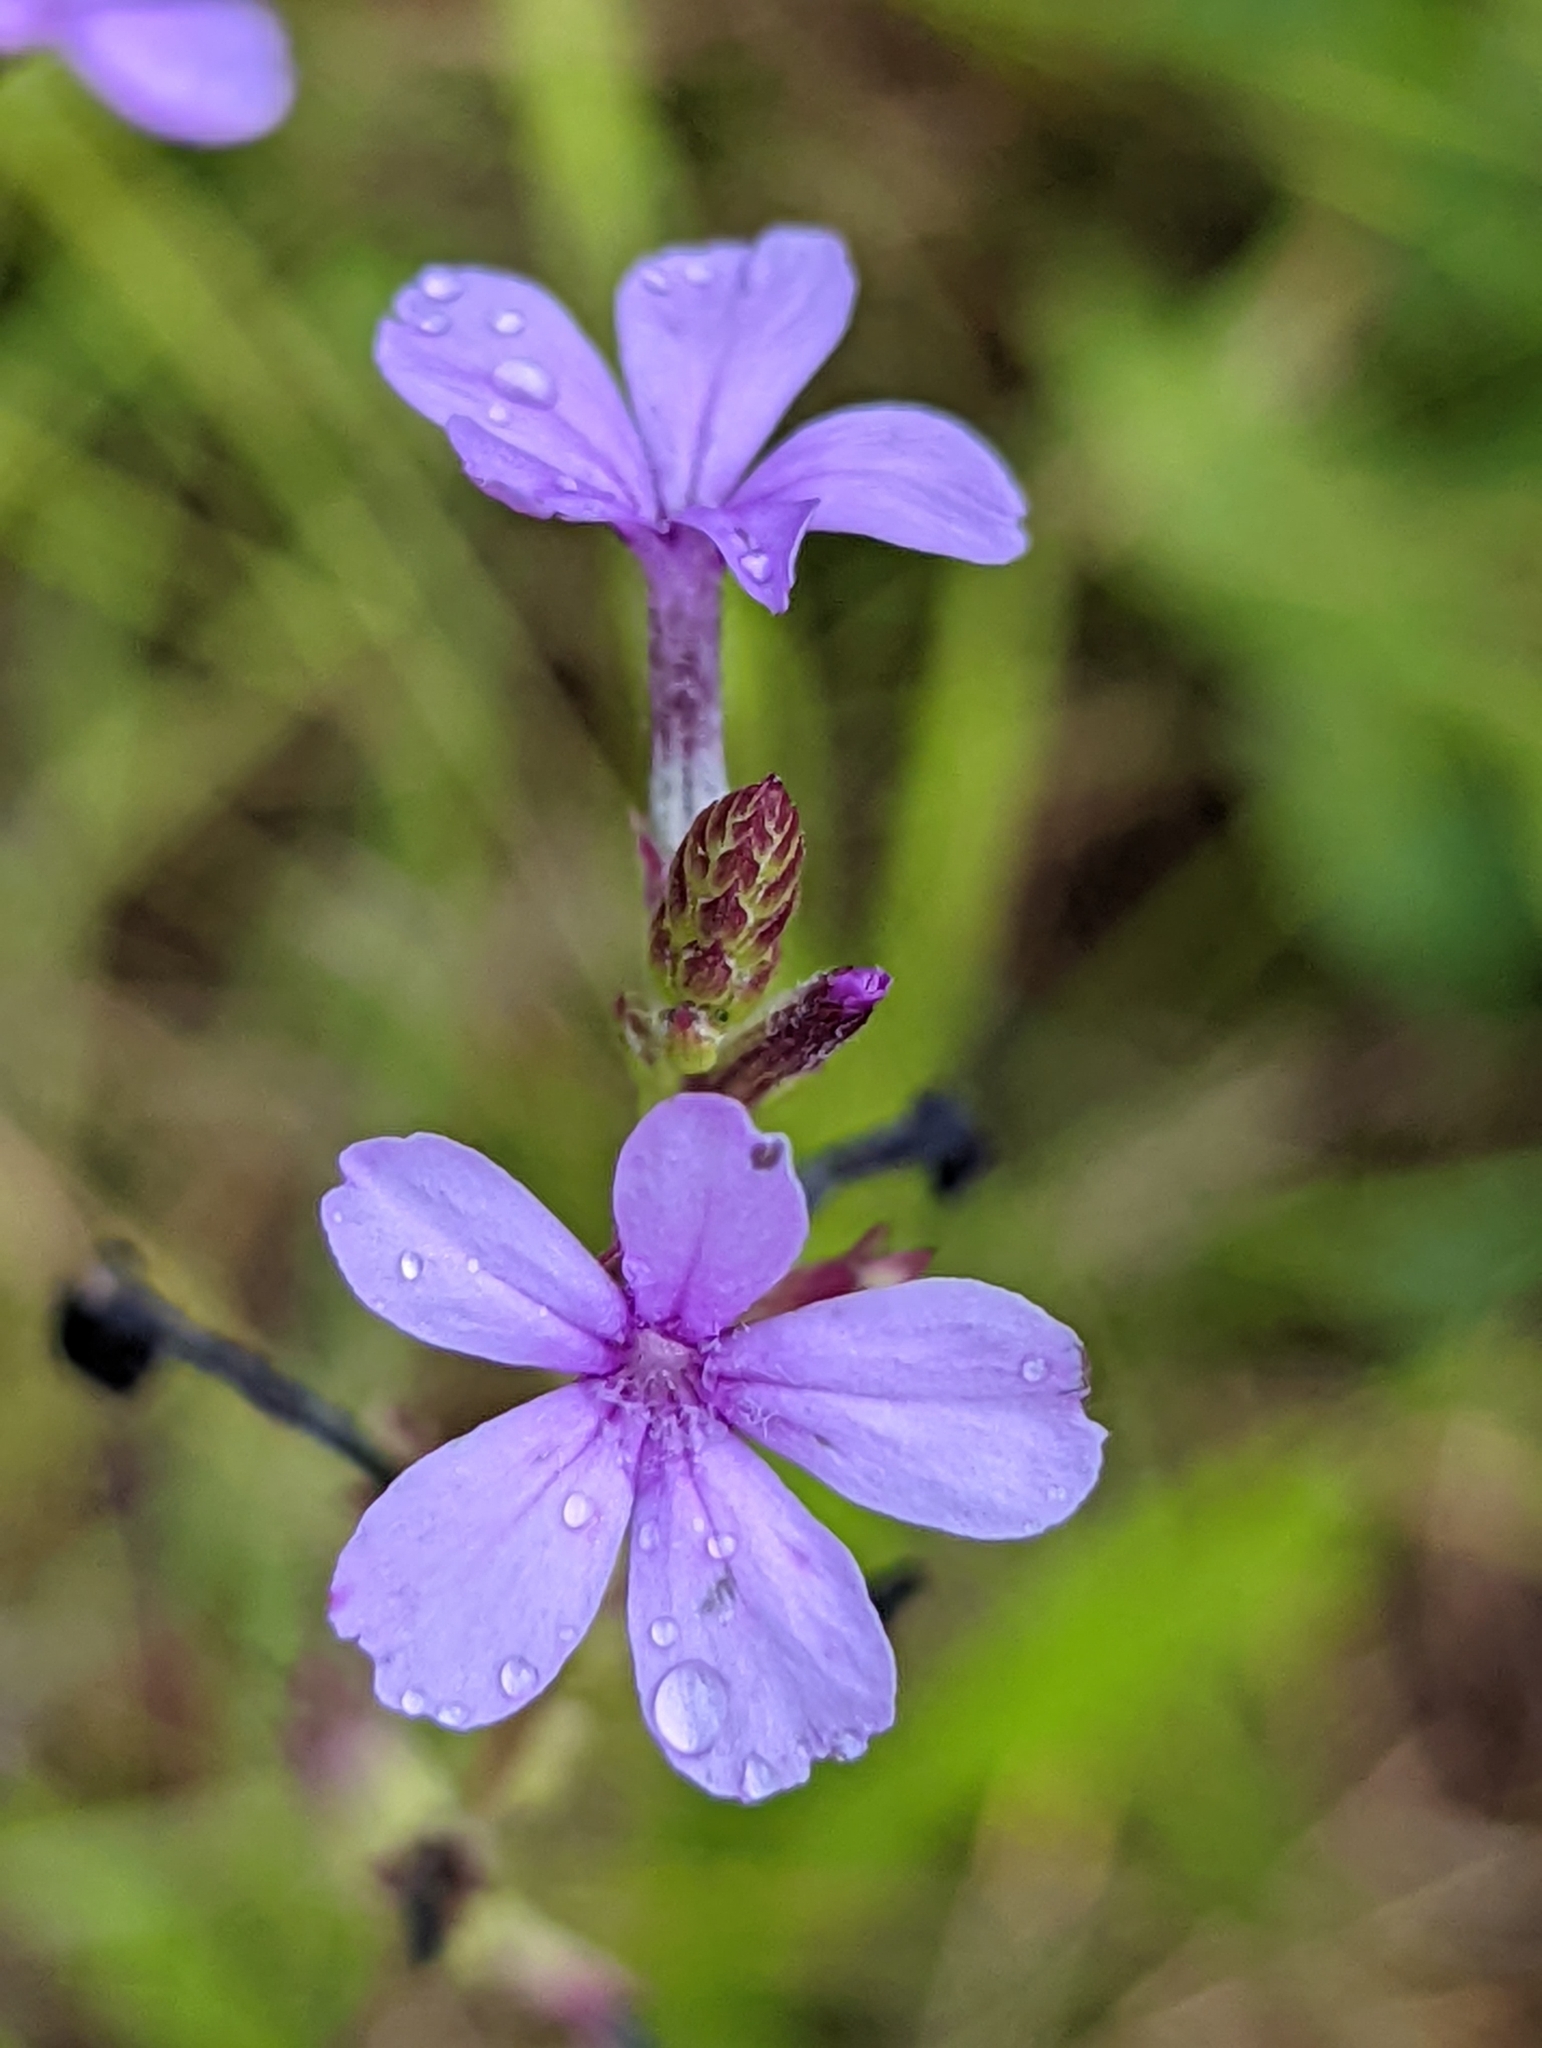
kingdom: Plantae
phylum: Tracheophyta
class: Magnoliopsida
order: Lamiales
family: Orobanchaceae
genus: Buchnera
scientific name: Buchnera americana
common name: American bluehearts
